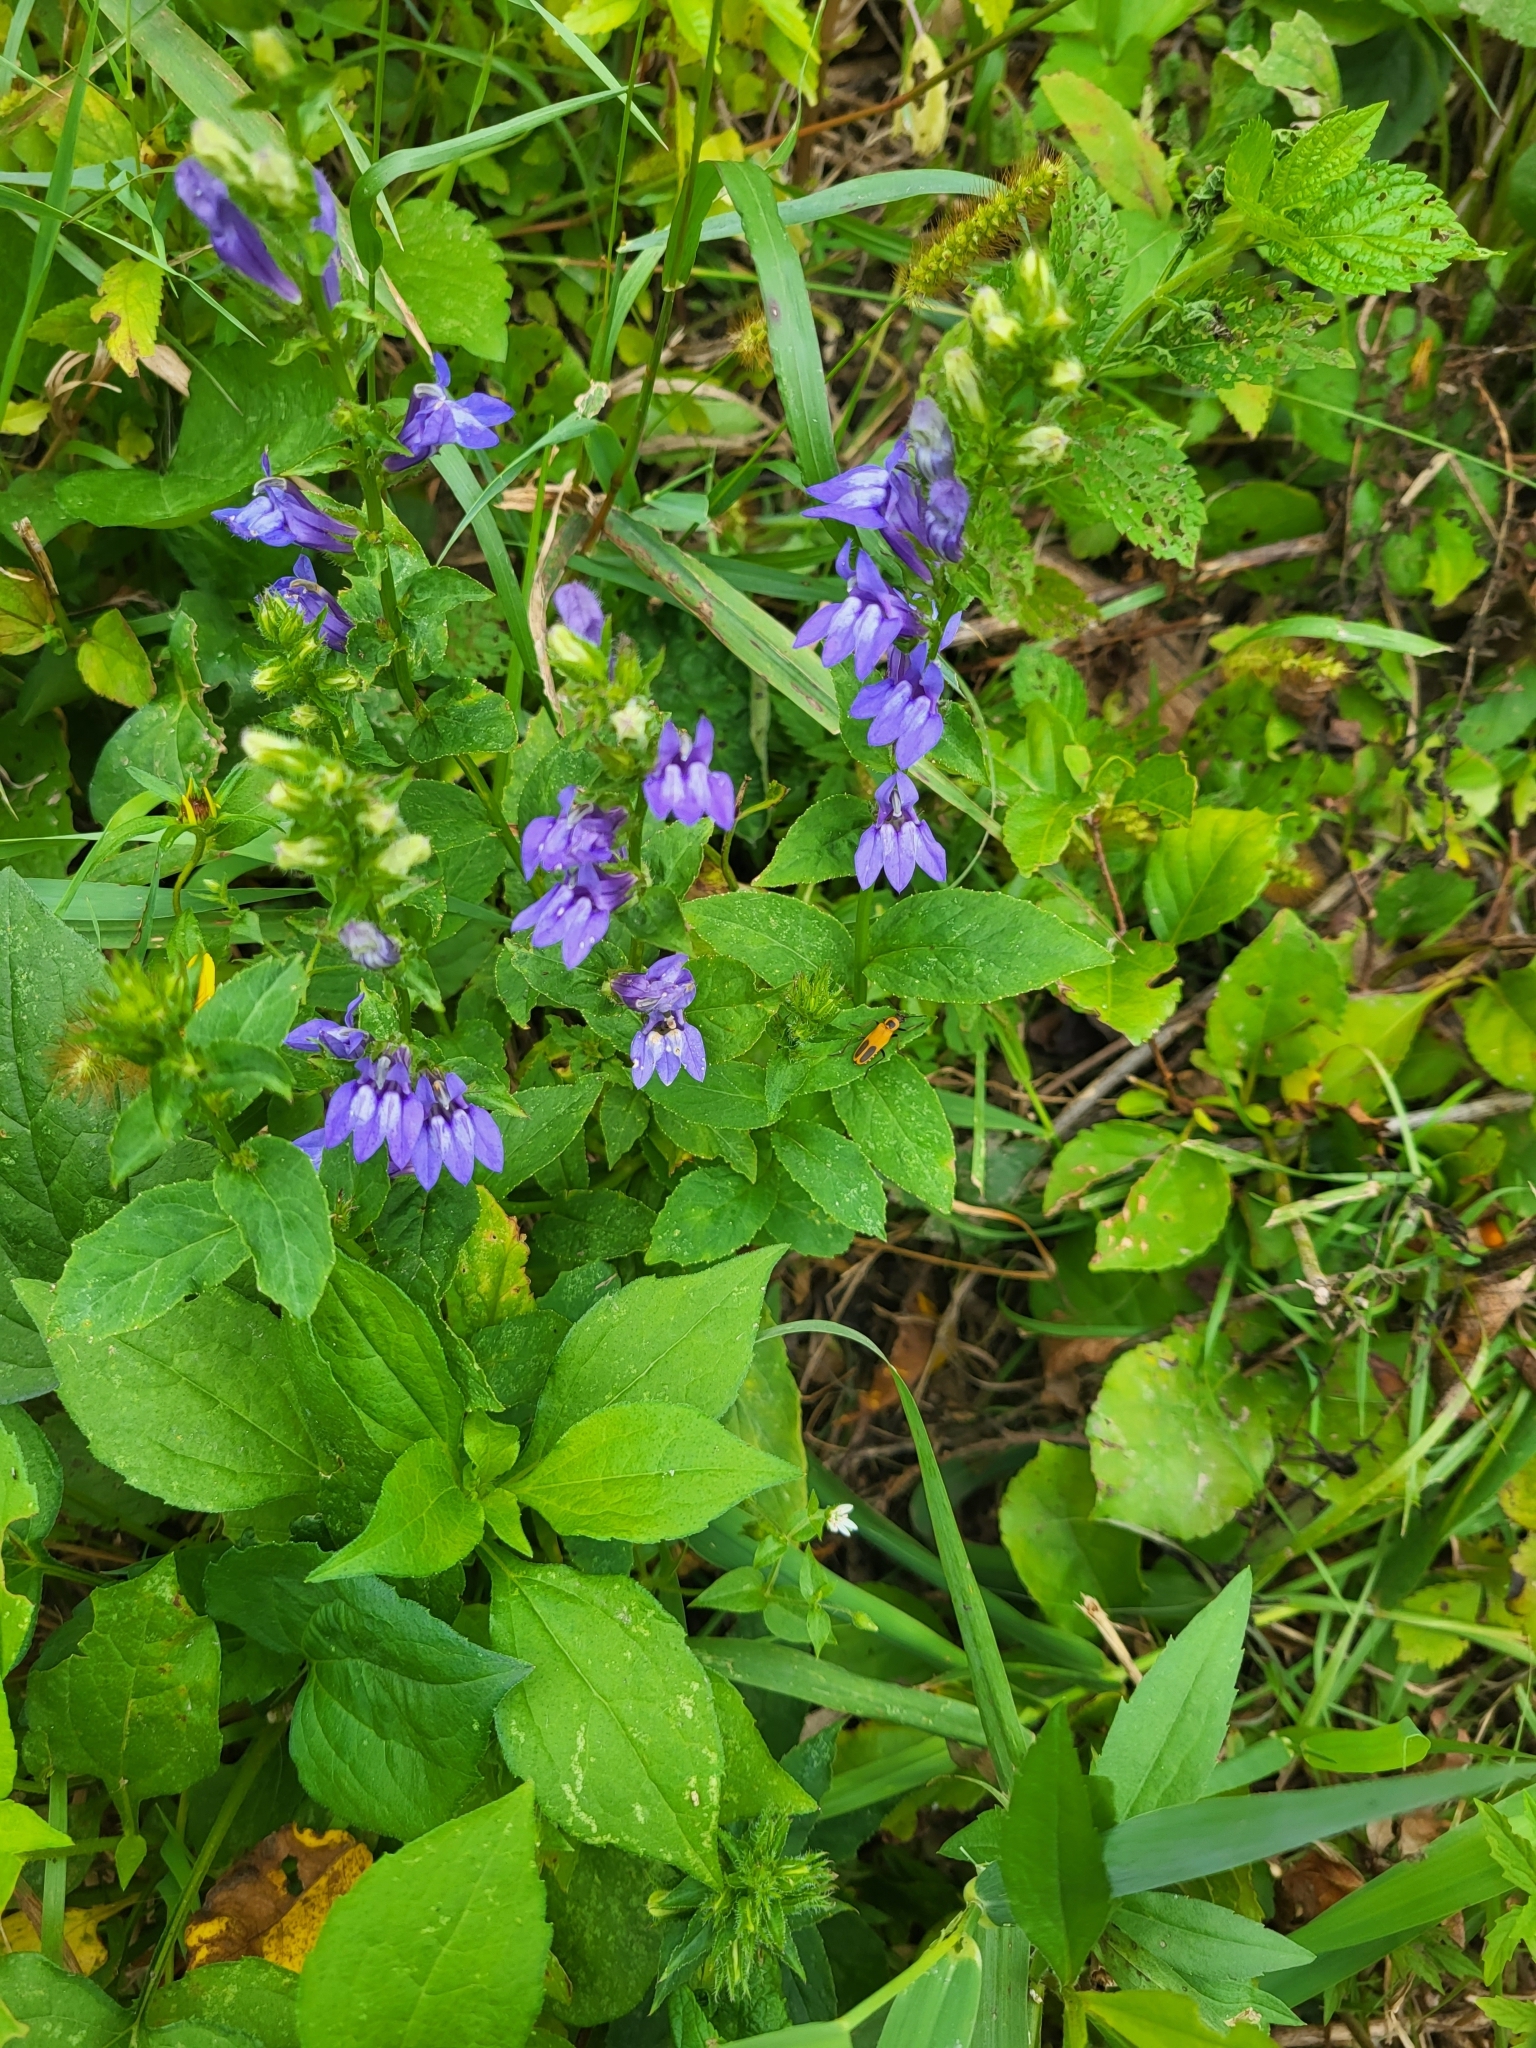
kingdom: Plantae
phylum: Tracheophyta
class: Magnoliopsida
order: Asterales
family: Campanulaceae
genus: Lobelia
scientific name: Lobelia siphilitica
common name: Great lobelia
